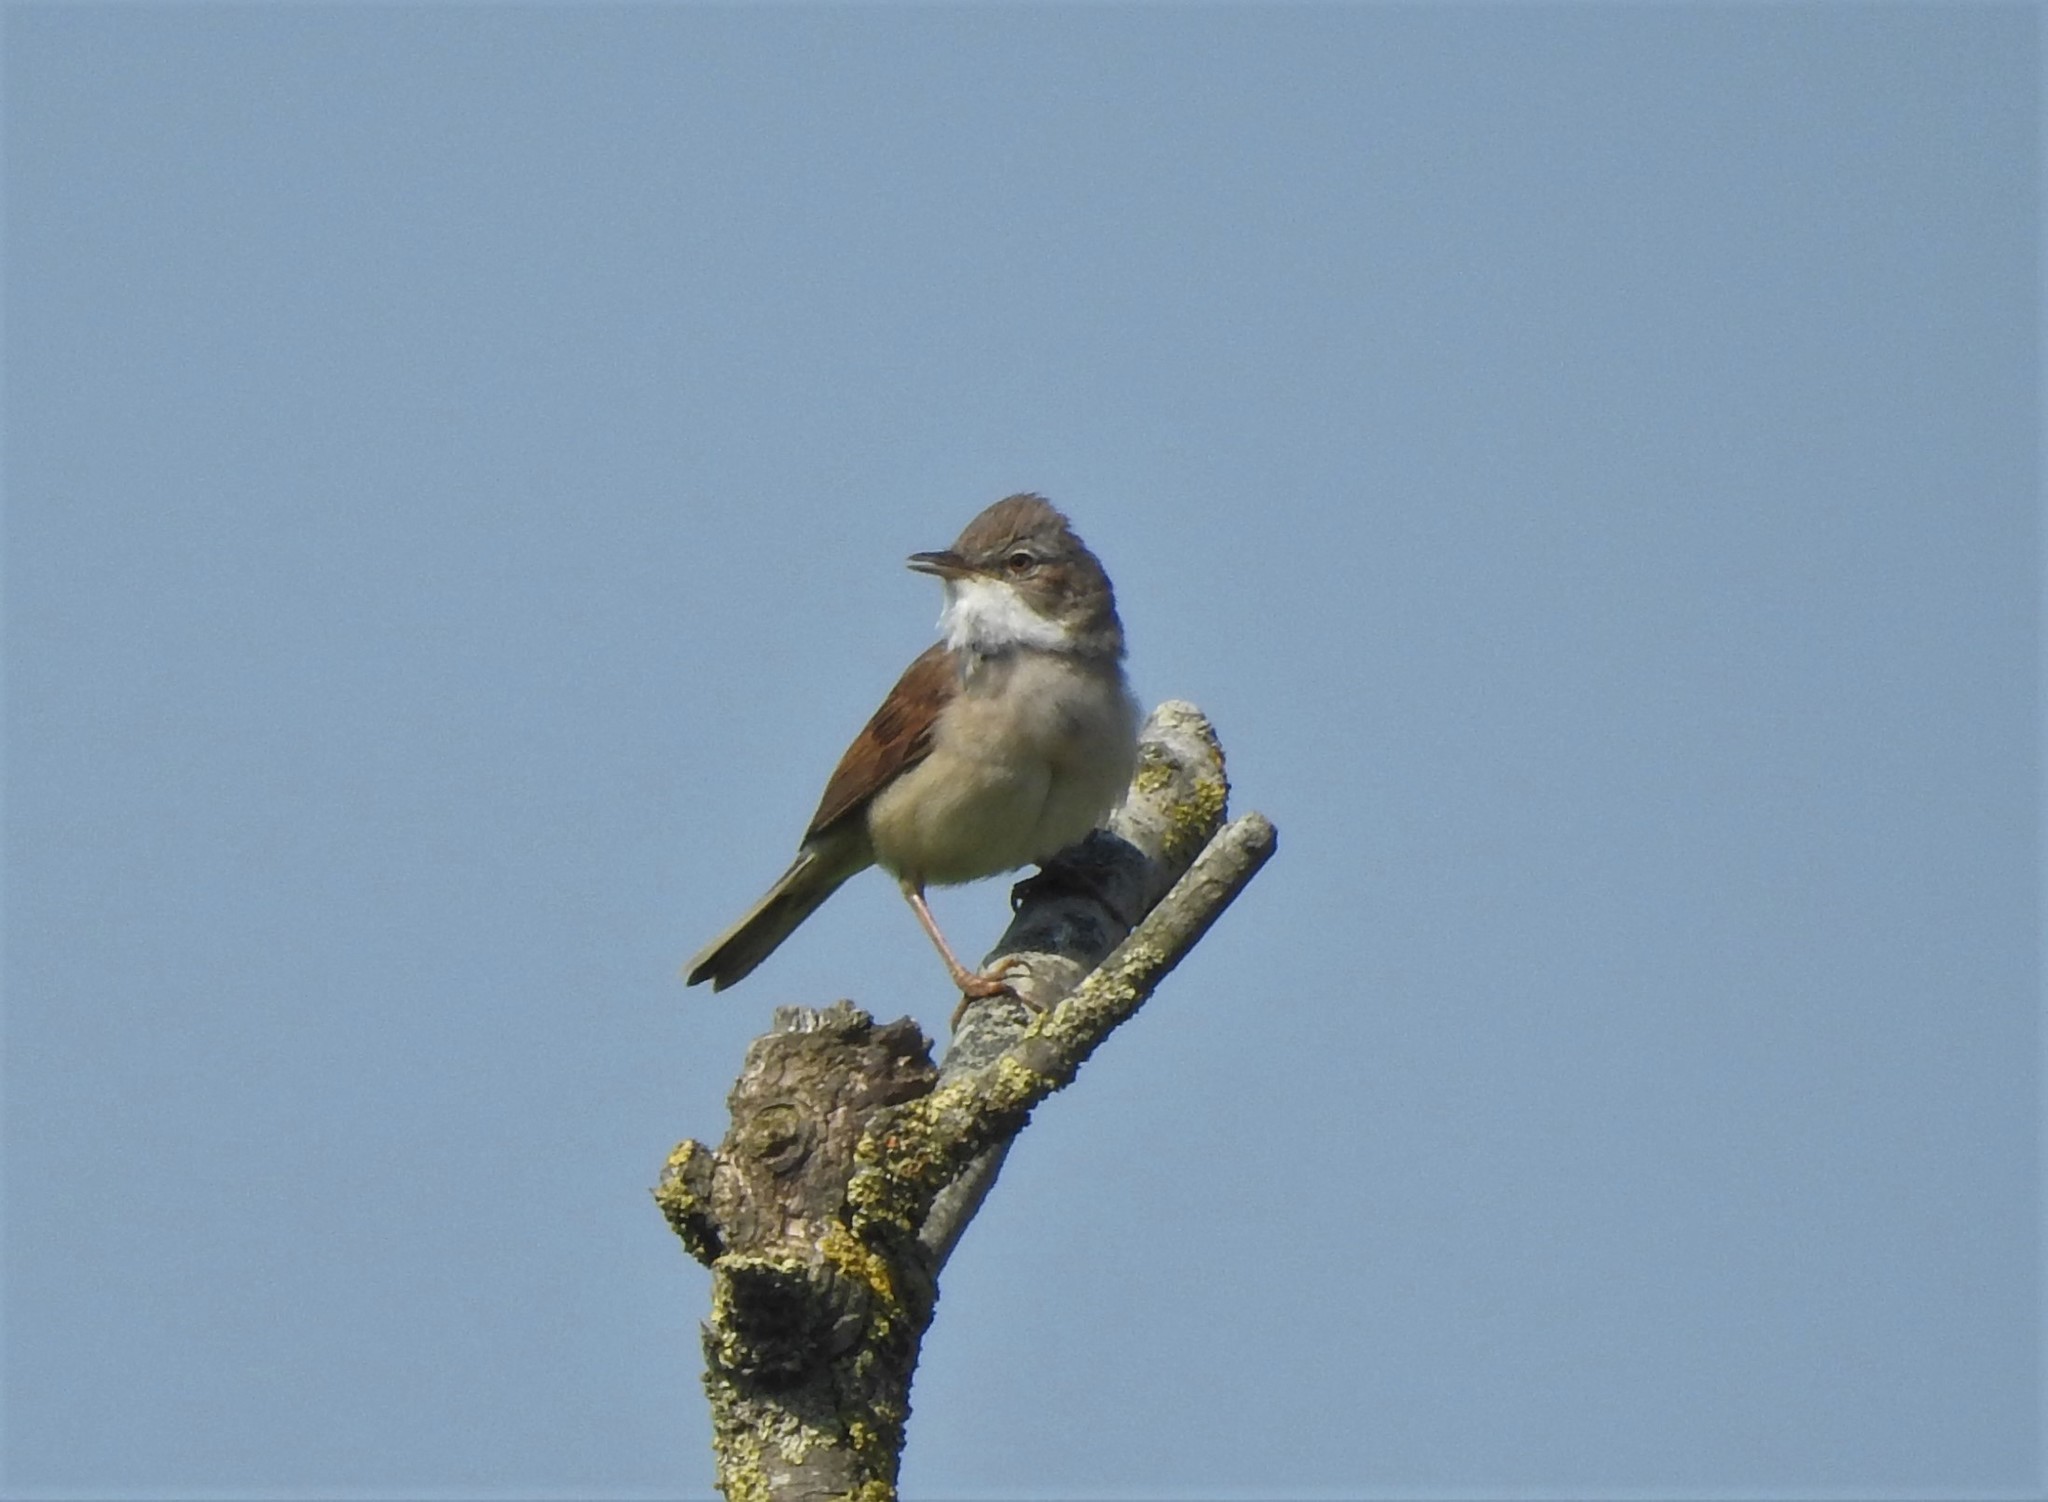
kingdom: Animalia
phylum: Chordata
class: Aves
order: Passeriformes
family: Sylviidae
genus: Sylvia
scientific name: Sylvia communis
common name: Common whitethroat
